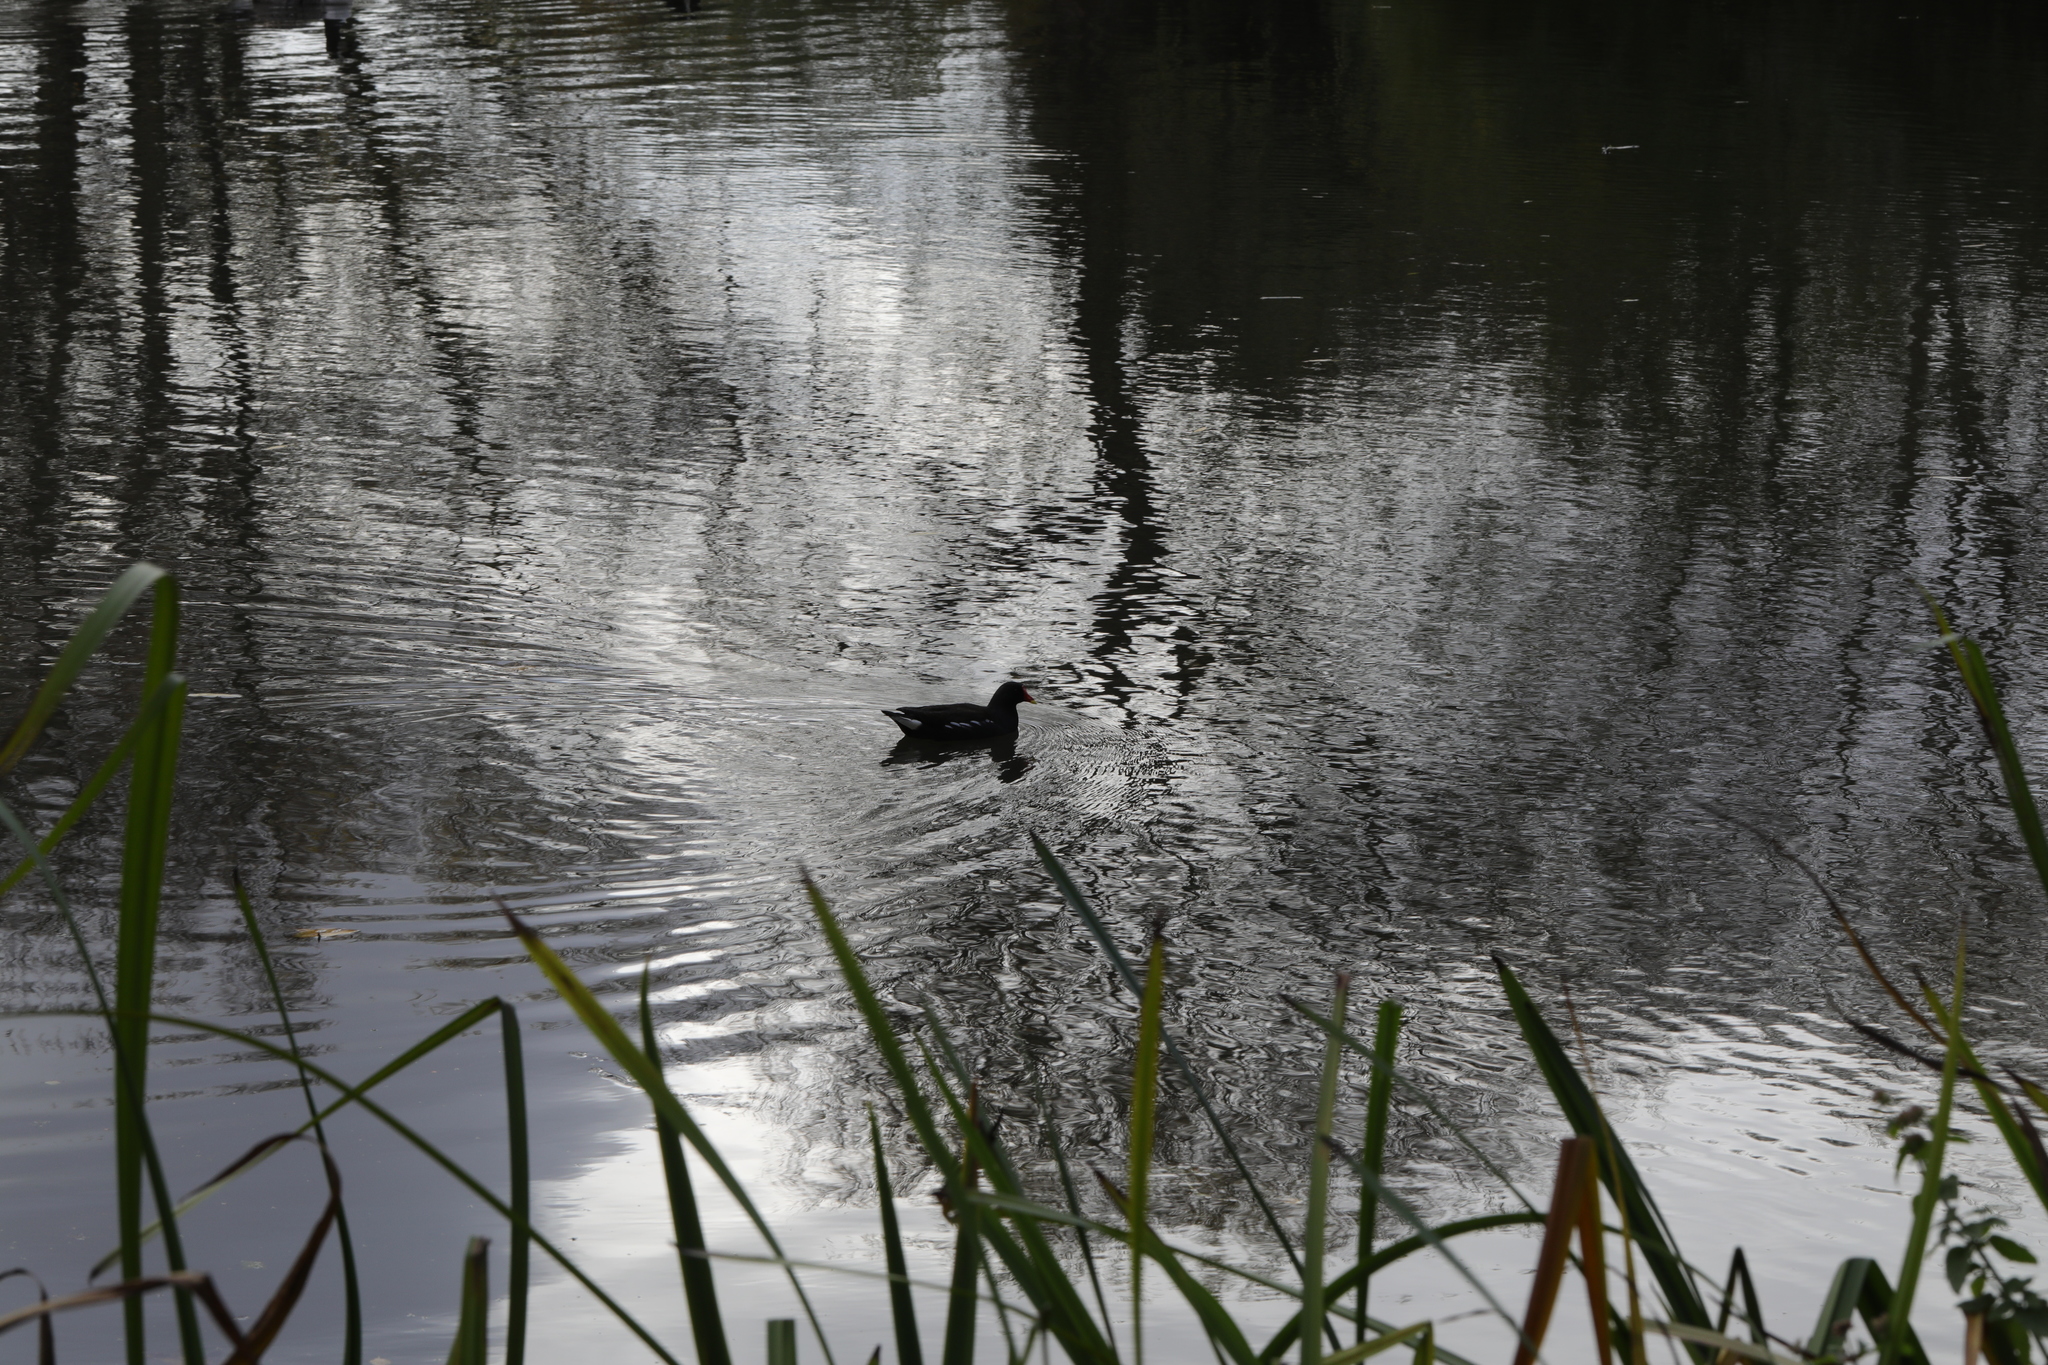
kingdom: Animalia
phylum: Chordata
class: Aves
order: Gruiformes
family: Rallidae
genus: Gallinula
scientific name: Gallinula chloropus
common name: Common moorhen
